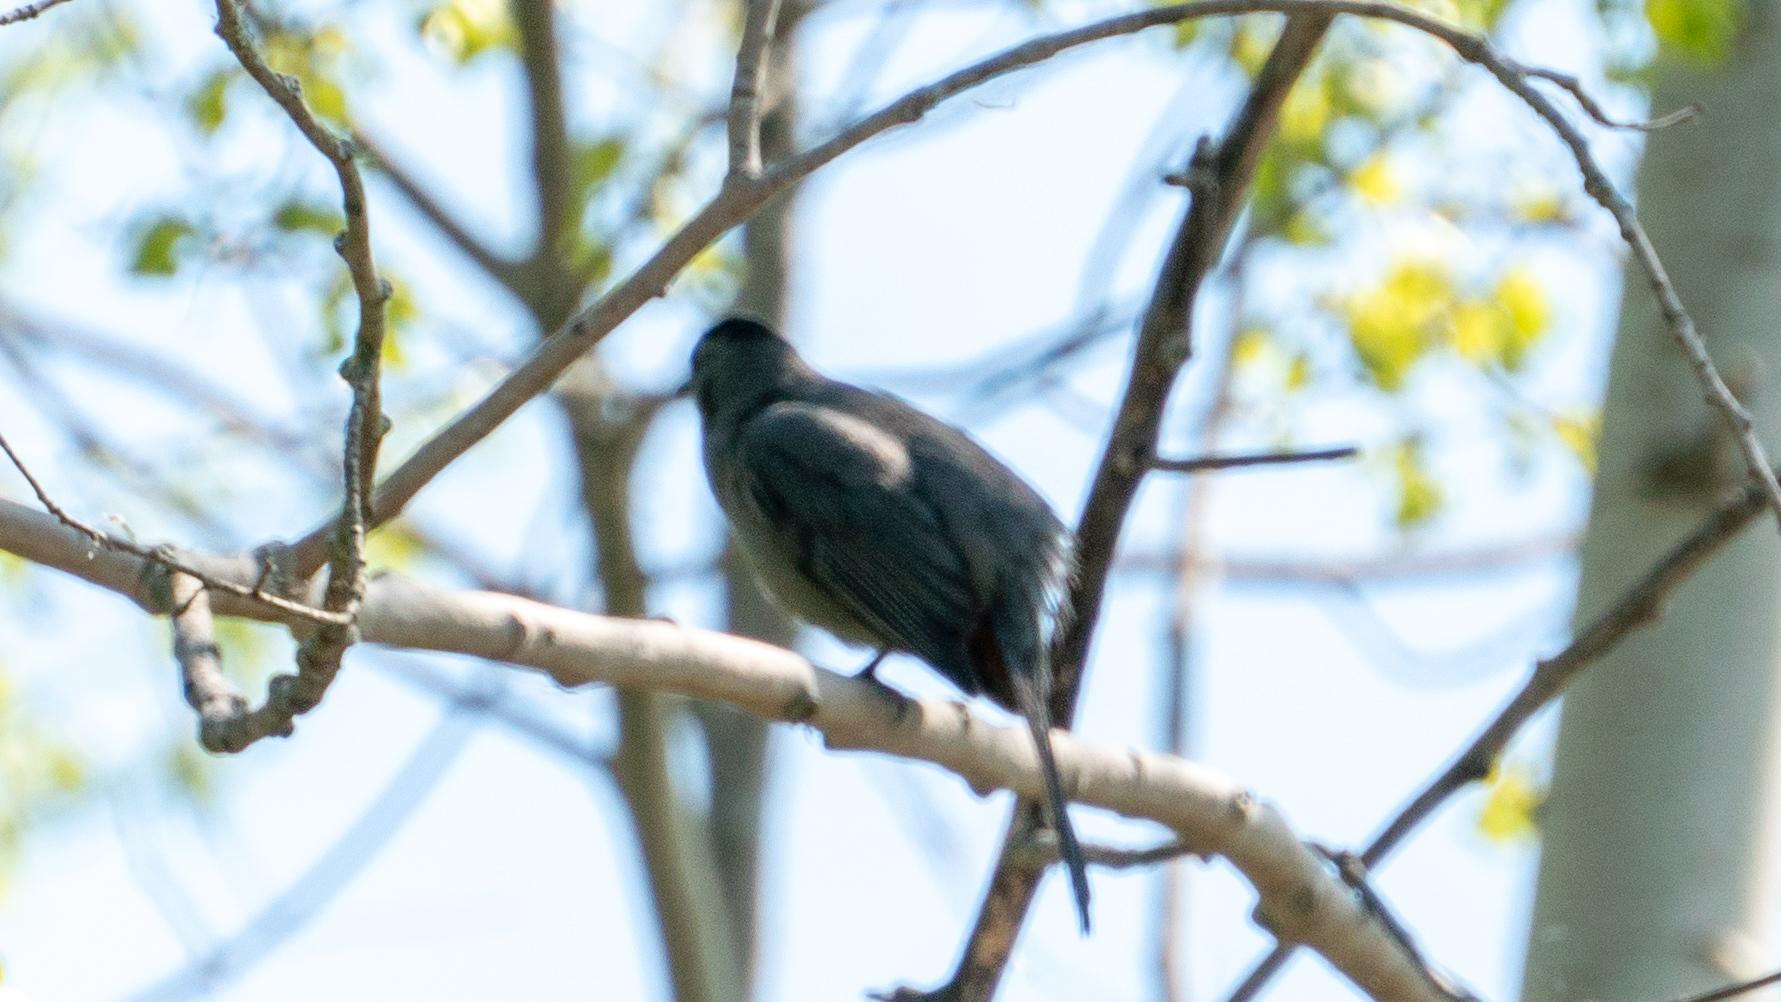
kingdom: Animalia
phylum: Chordata
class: Aves
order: Passeriformes
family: Mimidae
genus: Dumetella
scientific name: Dumetella carolinensis
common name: Gray catbird
